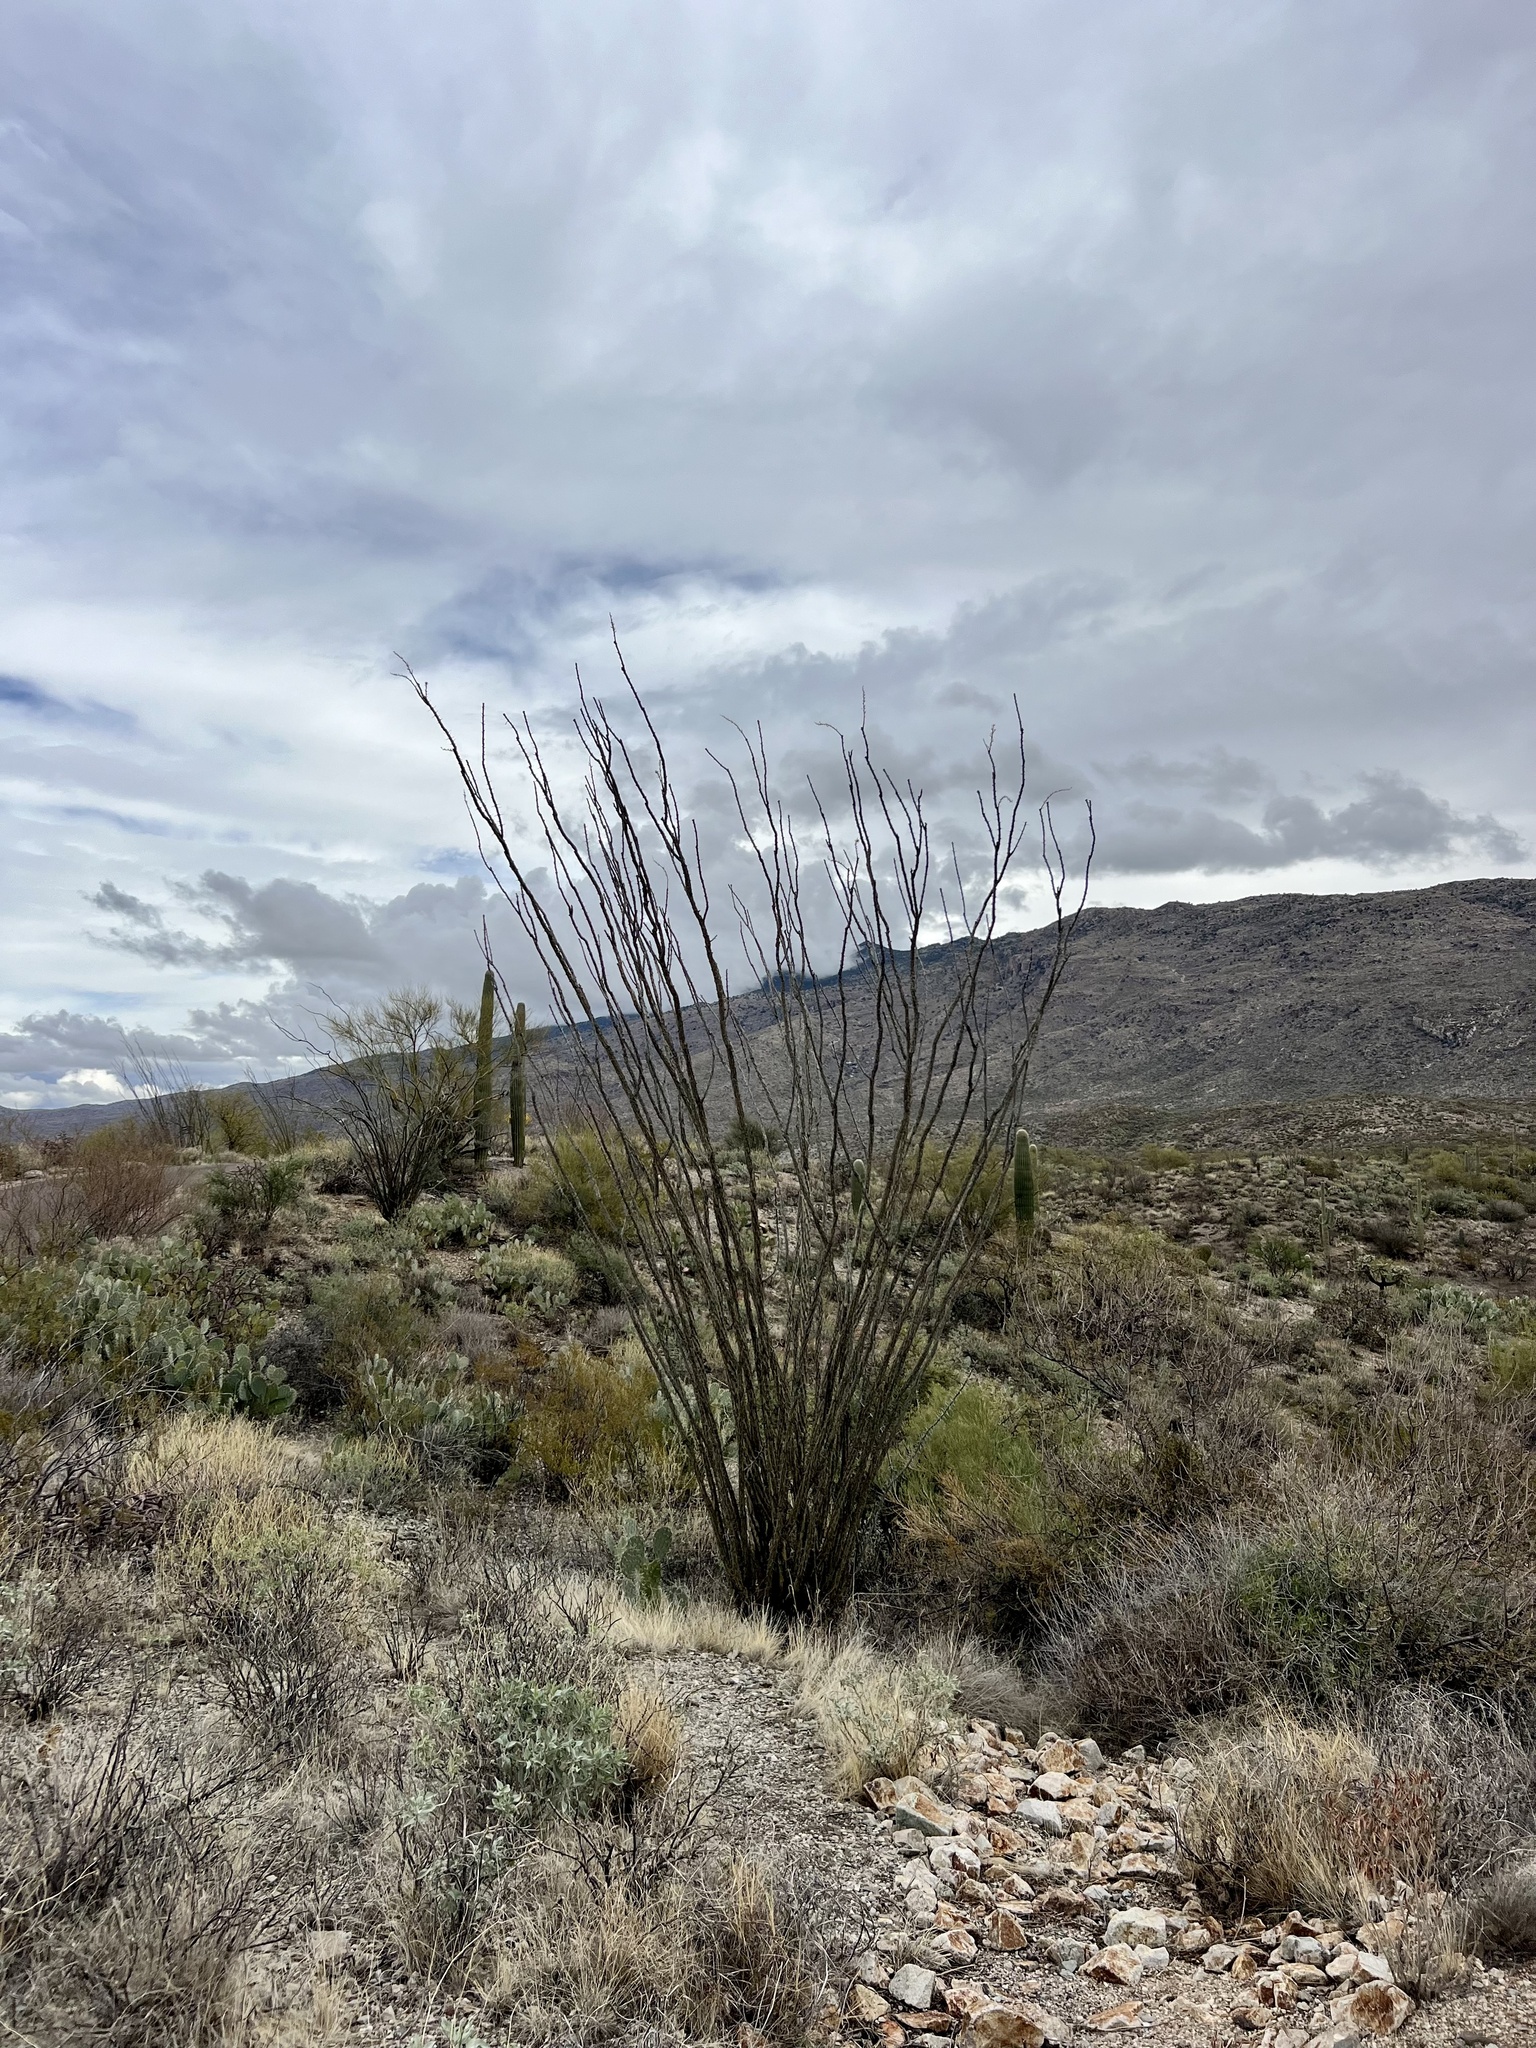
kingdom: Plantae
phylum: Tracheophyta
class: Magnoliopsida
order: Ericales
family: Fouquieriaceae
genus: Fouquieria
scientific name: Fouquieria splendens
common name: Vine-cactus
